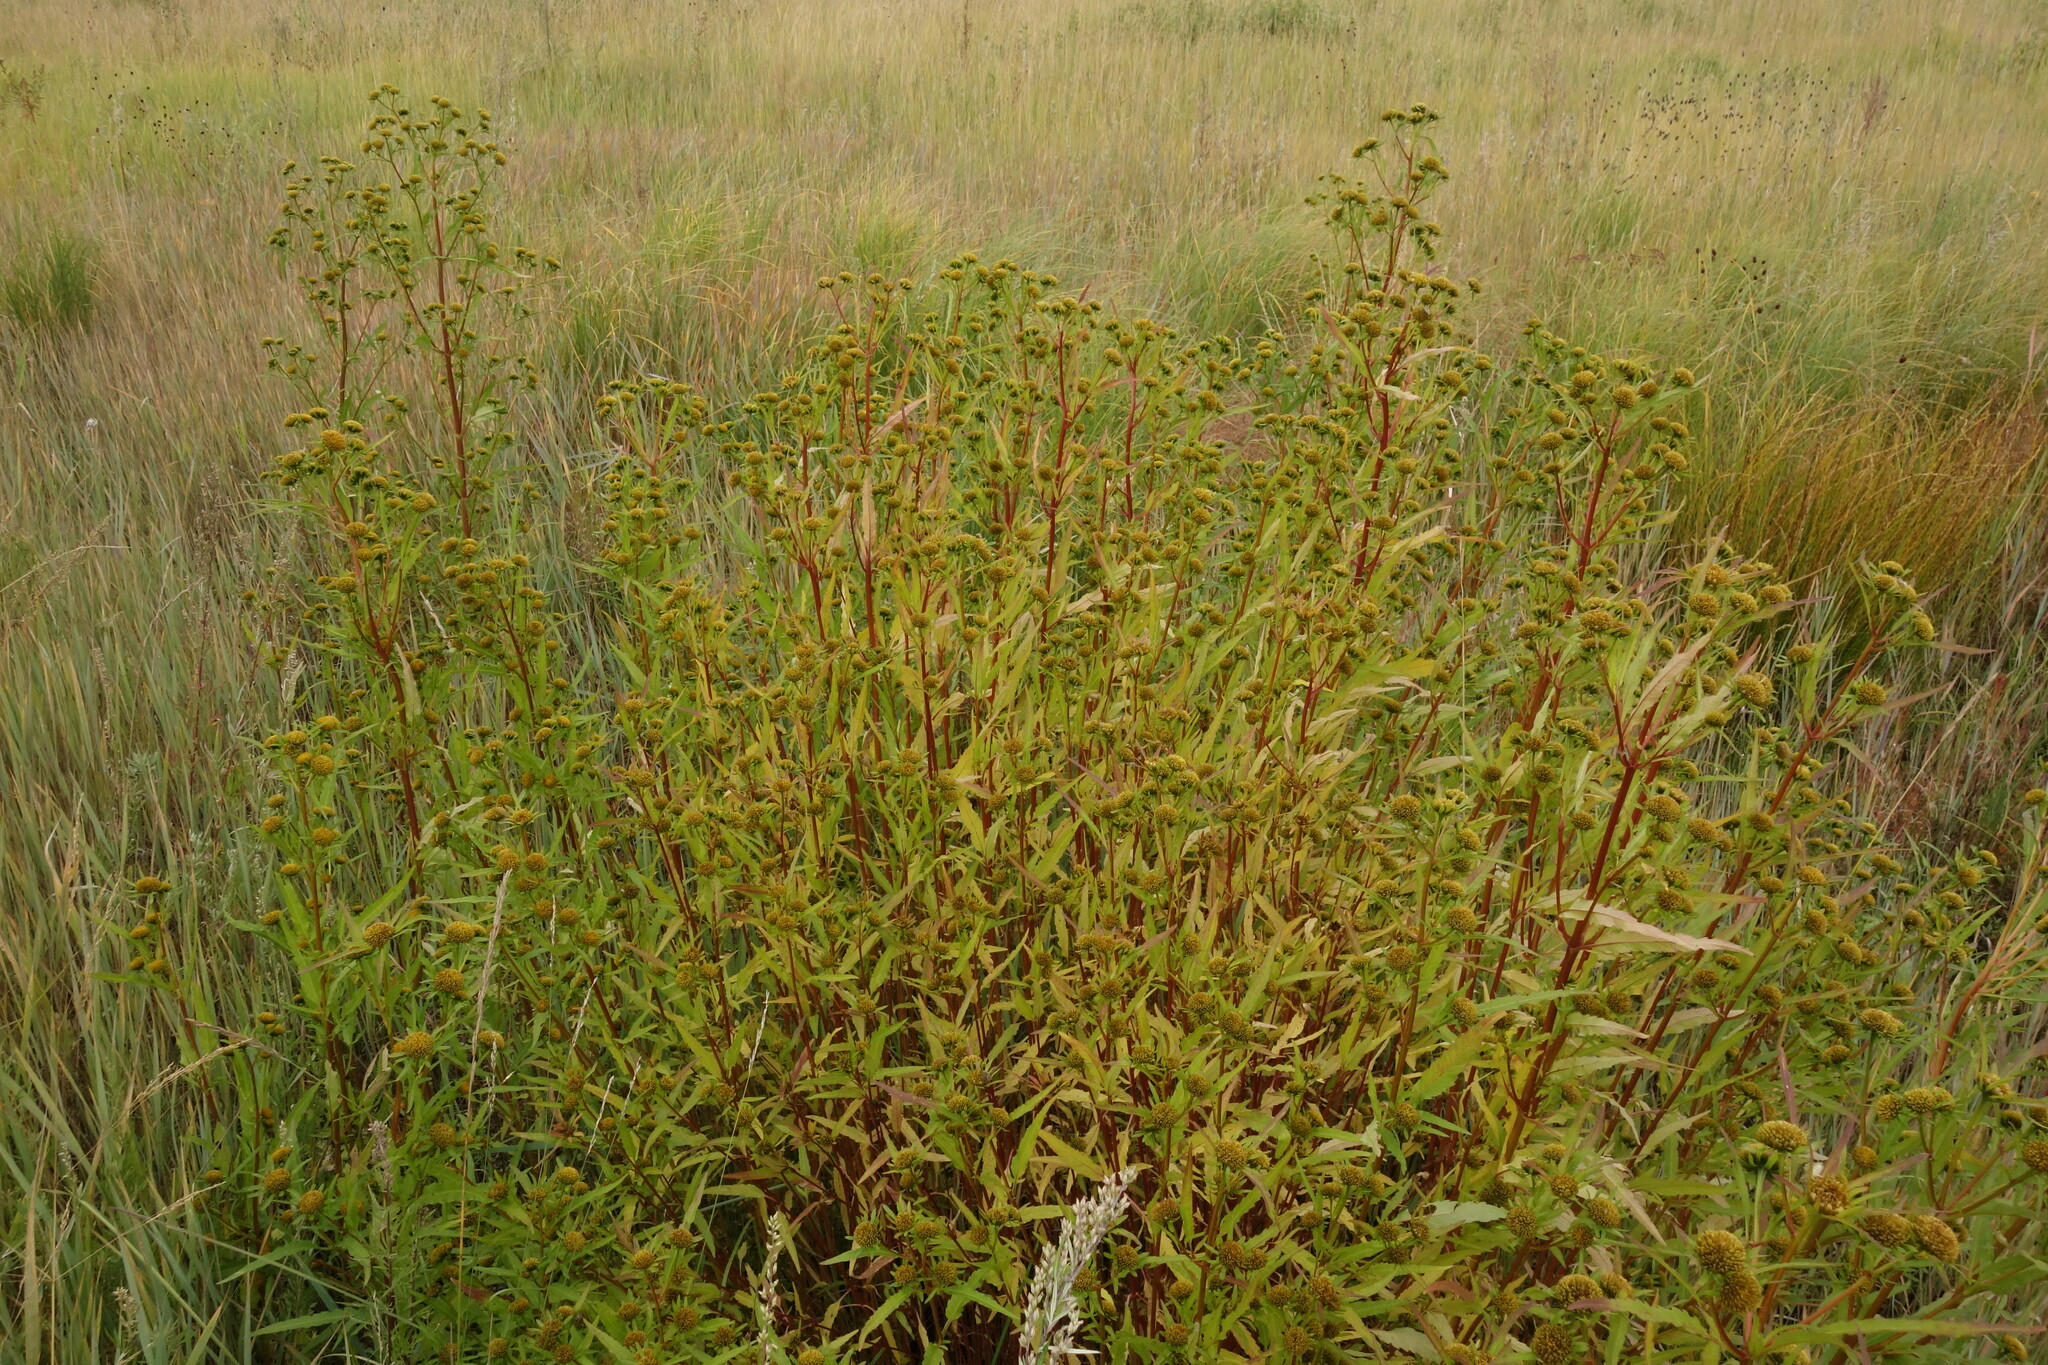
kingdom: Plantae
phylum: Tracheophyta
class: Magnoliopsida
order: Asterales
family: Asteraceae
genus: Bidens
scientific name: Bidens radiata
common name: Radiating bur-marigold
